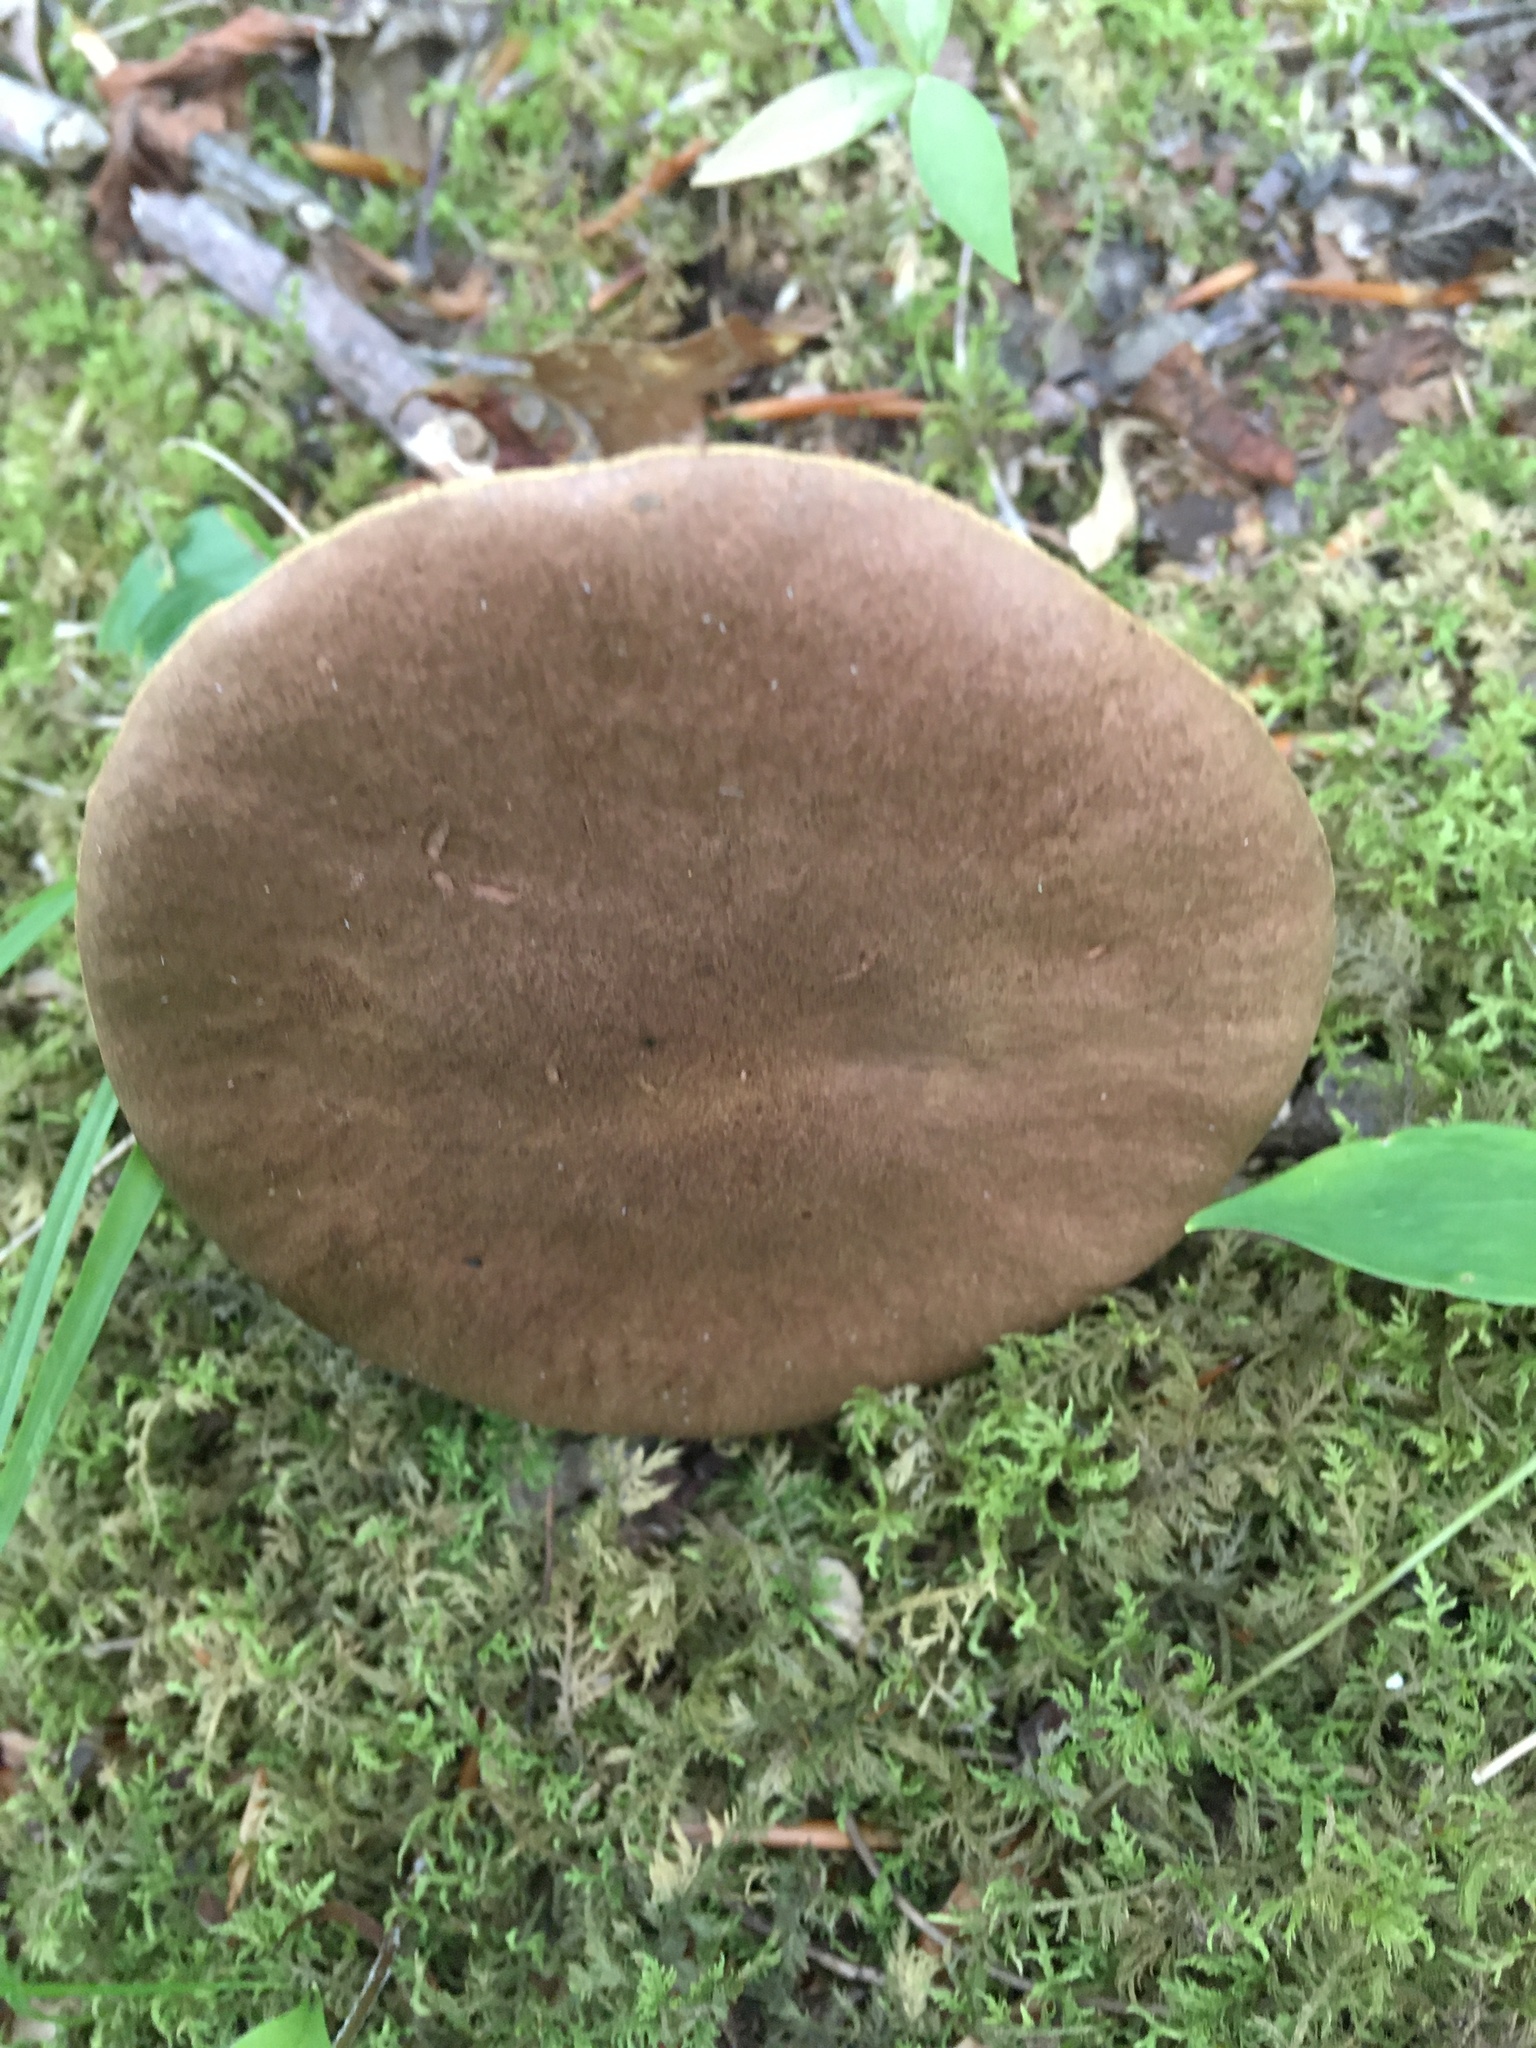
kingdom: Fungi
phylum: Basidiomycota
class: Agaricomycetes
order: Boletales
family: Boletaceae
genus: Aureoboletus
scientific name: Aureoboletus innixus
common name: Clustered brown bolete
